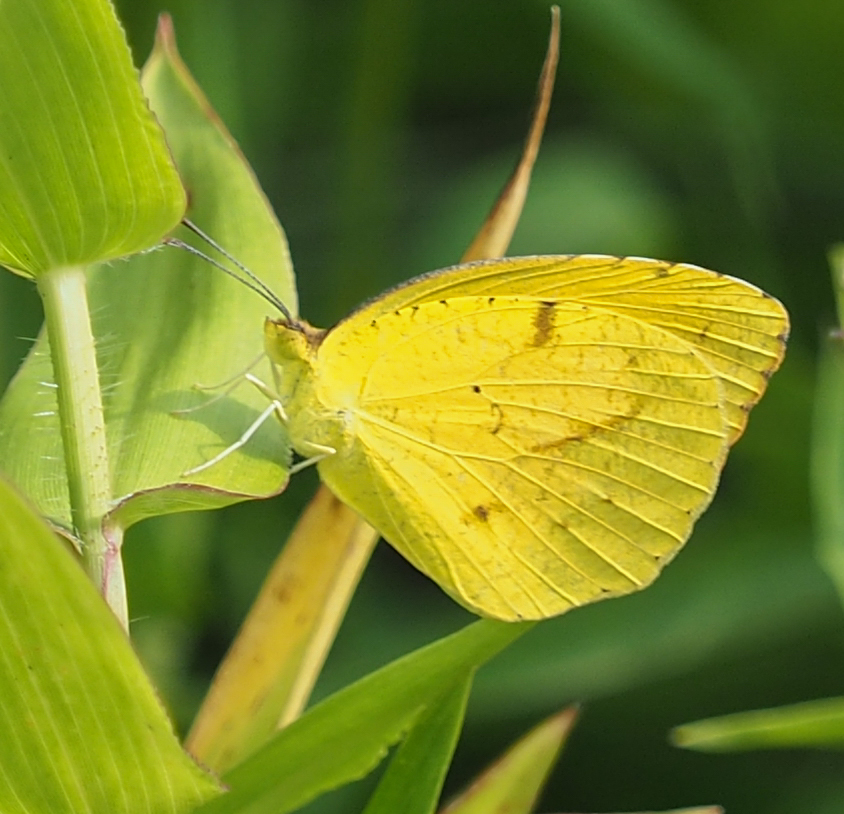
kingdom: Animalia
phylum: Arthropoda
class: Insecta
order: Lepidoptera
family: Pieridae
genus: Abaeis
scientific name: Abaeis nicippe
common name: Sleepy orange
